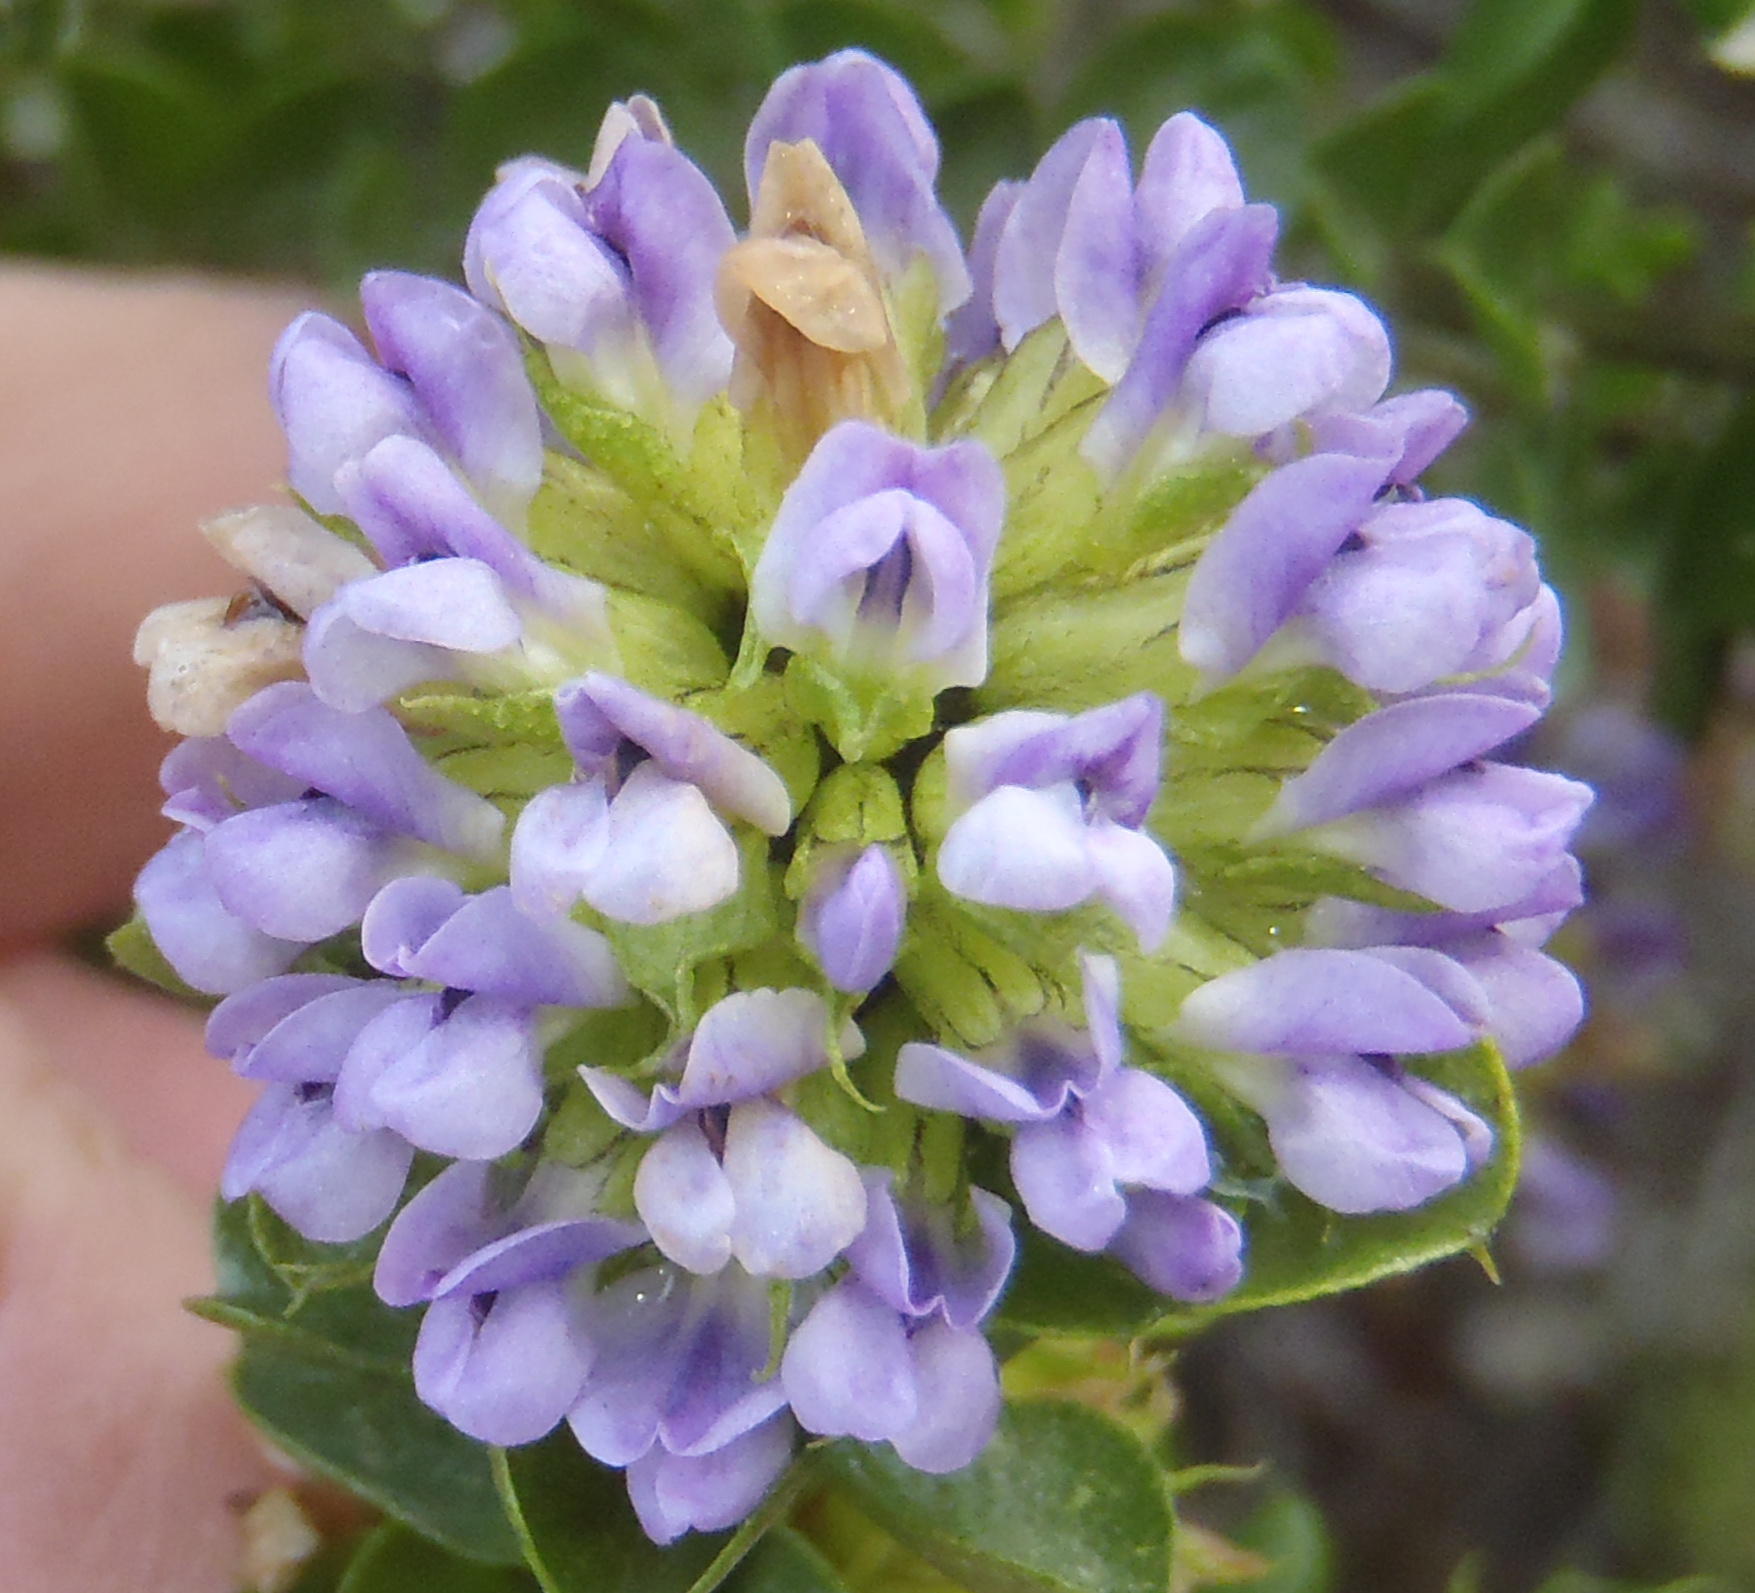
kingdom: Plantae
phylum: Tracheophyta
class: Magnoliopsida
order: Fabales
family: Fabaceae
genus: Psoralea
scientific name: Psoralea acuminata
